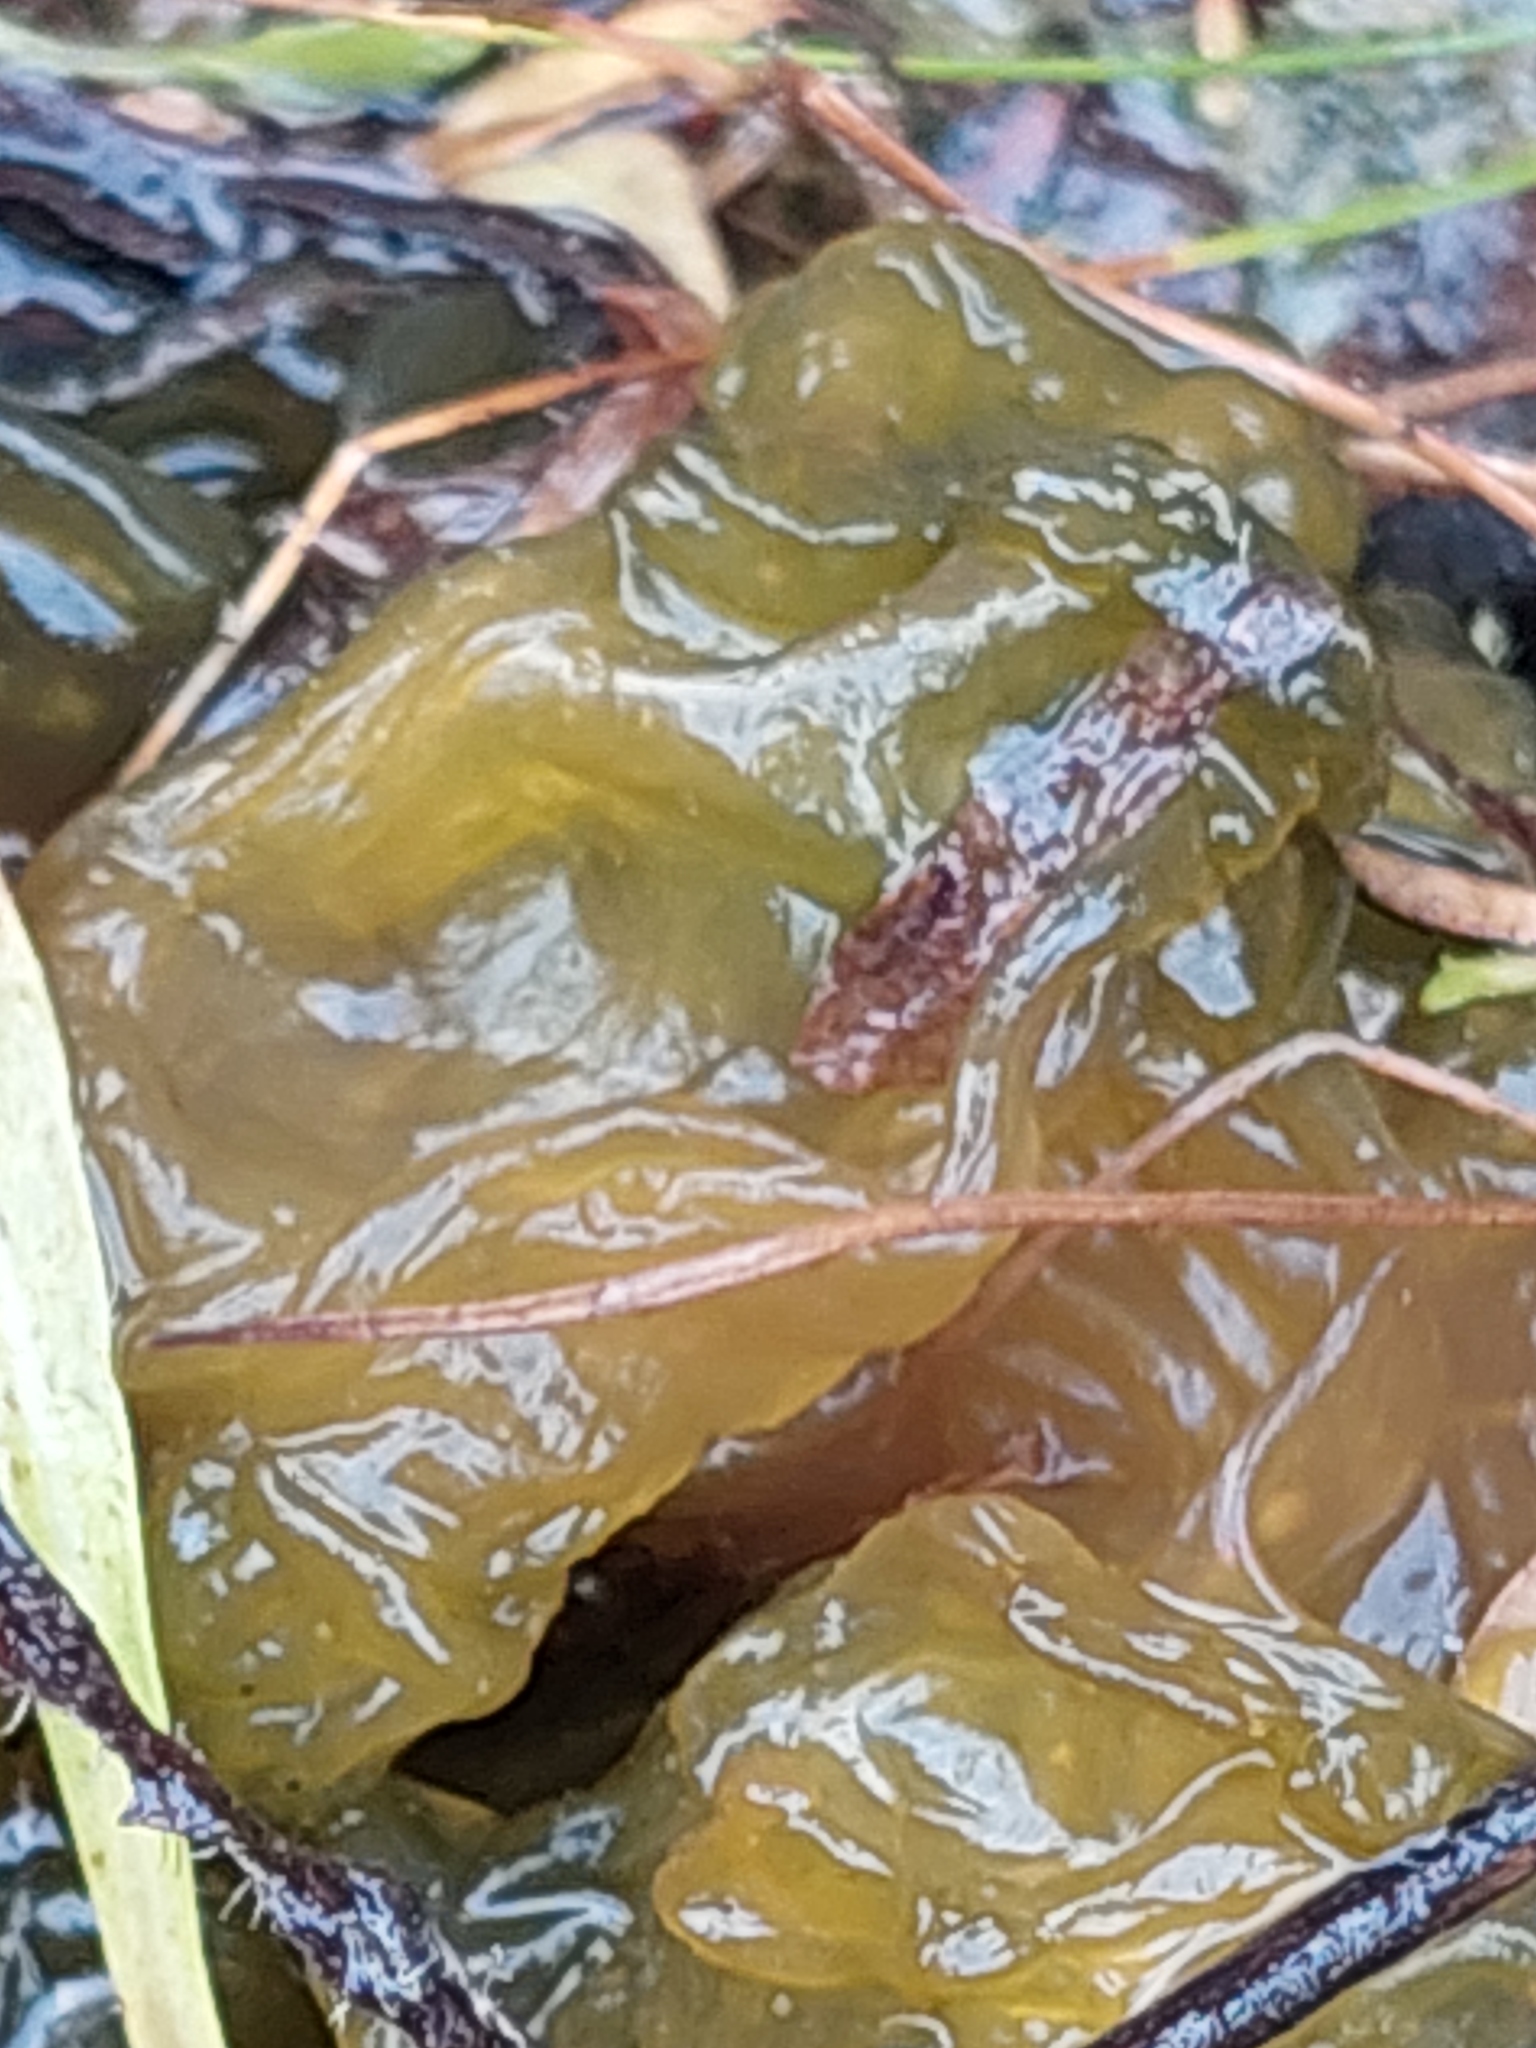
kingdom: Bacteria
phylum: Cyanobacteria
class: Cyanobacteriia
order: Cyanobacteriales
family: Nostocaceae
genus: Nostoc
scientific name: Nostoc commune
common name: Star jelly
